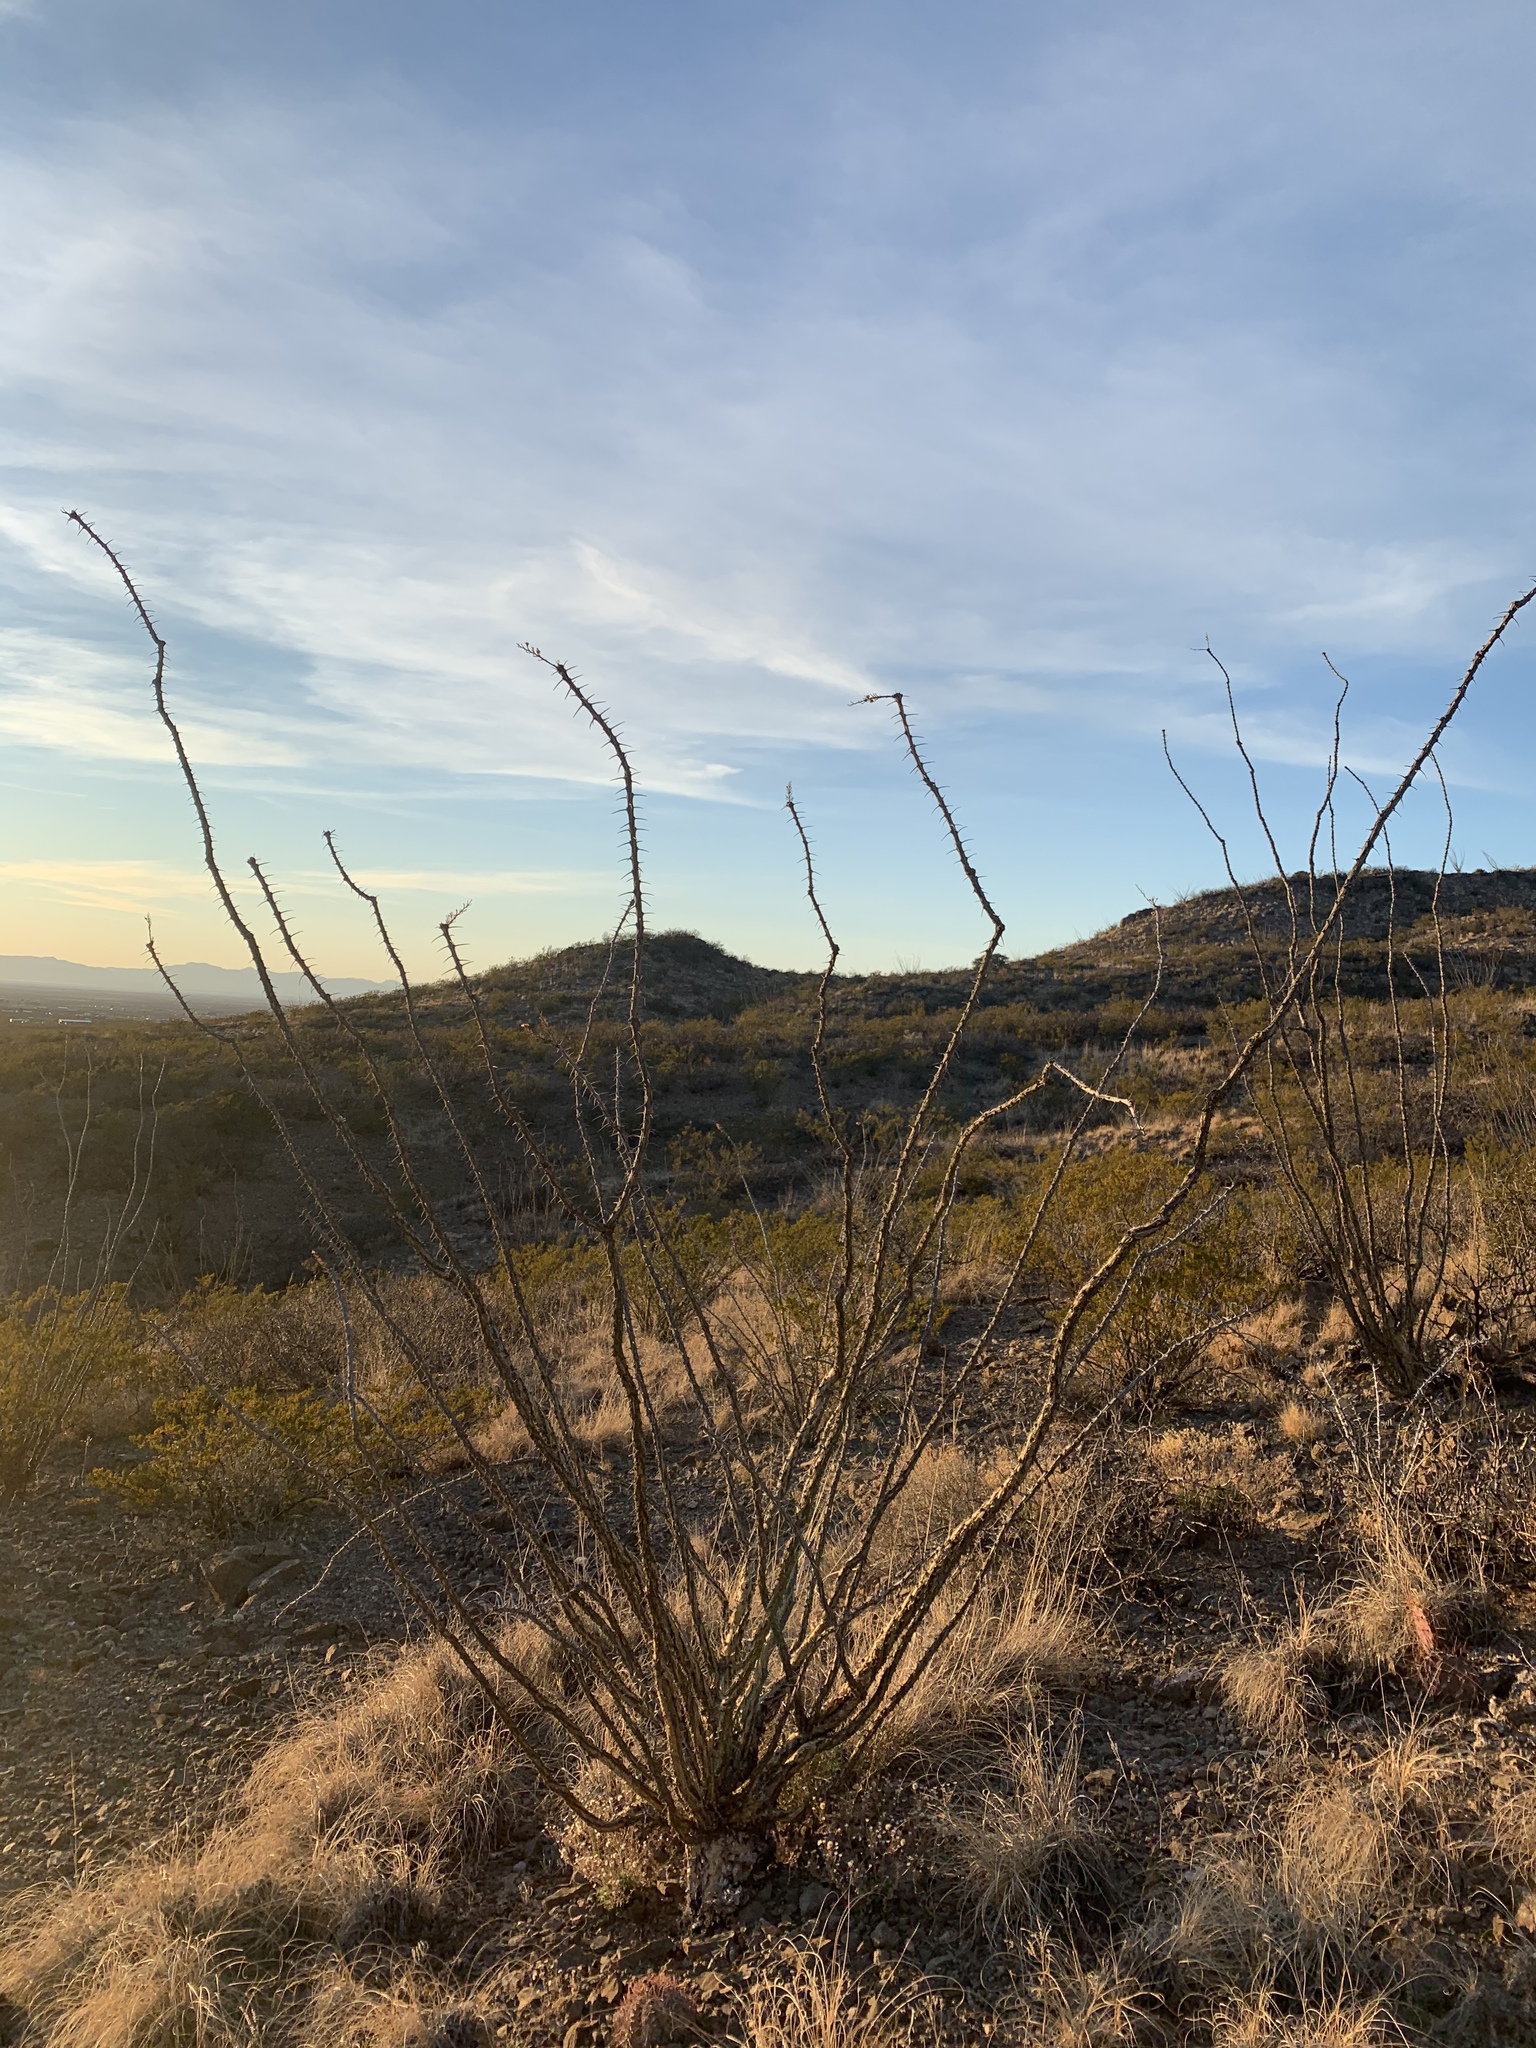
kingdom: Plantae
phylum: Tracheophyta
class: Magnoliopsida
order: Ericales
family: Fouquieriaceae
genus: Fouquieria
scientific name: Fouquieria splendens
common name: Vine-cactus
